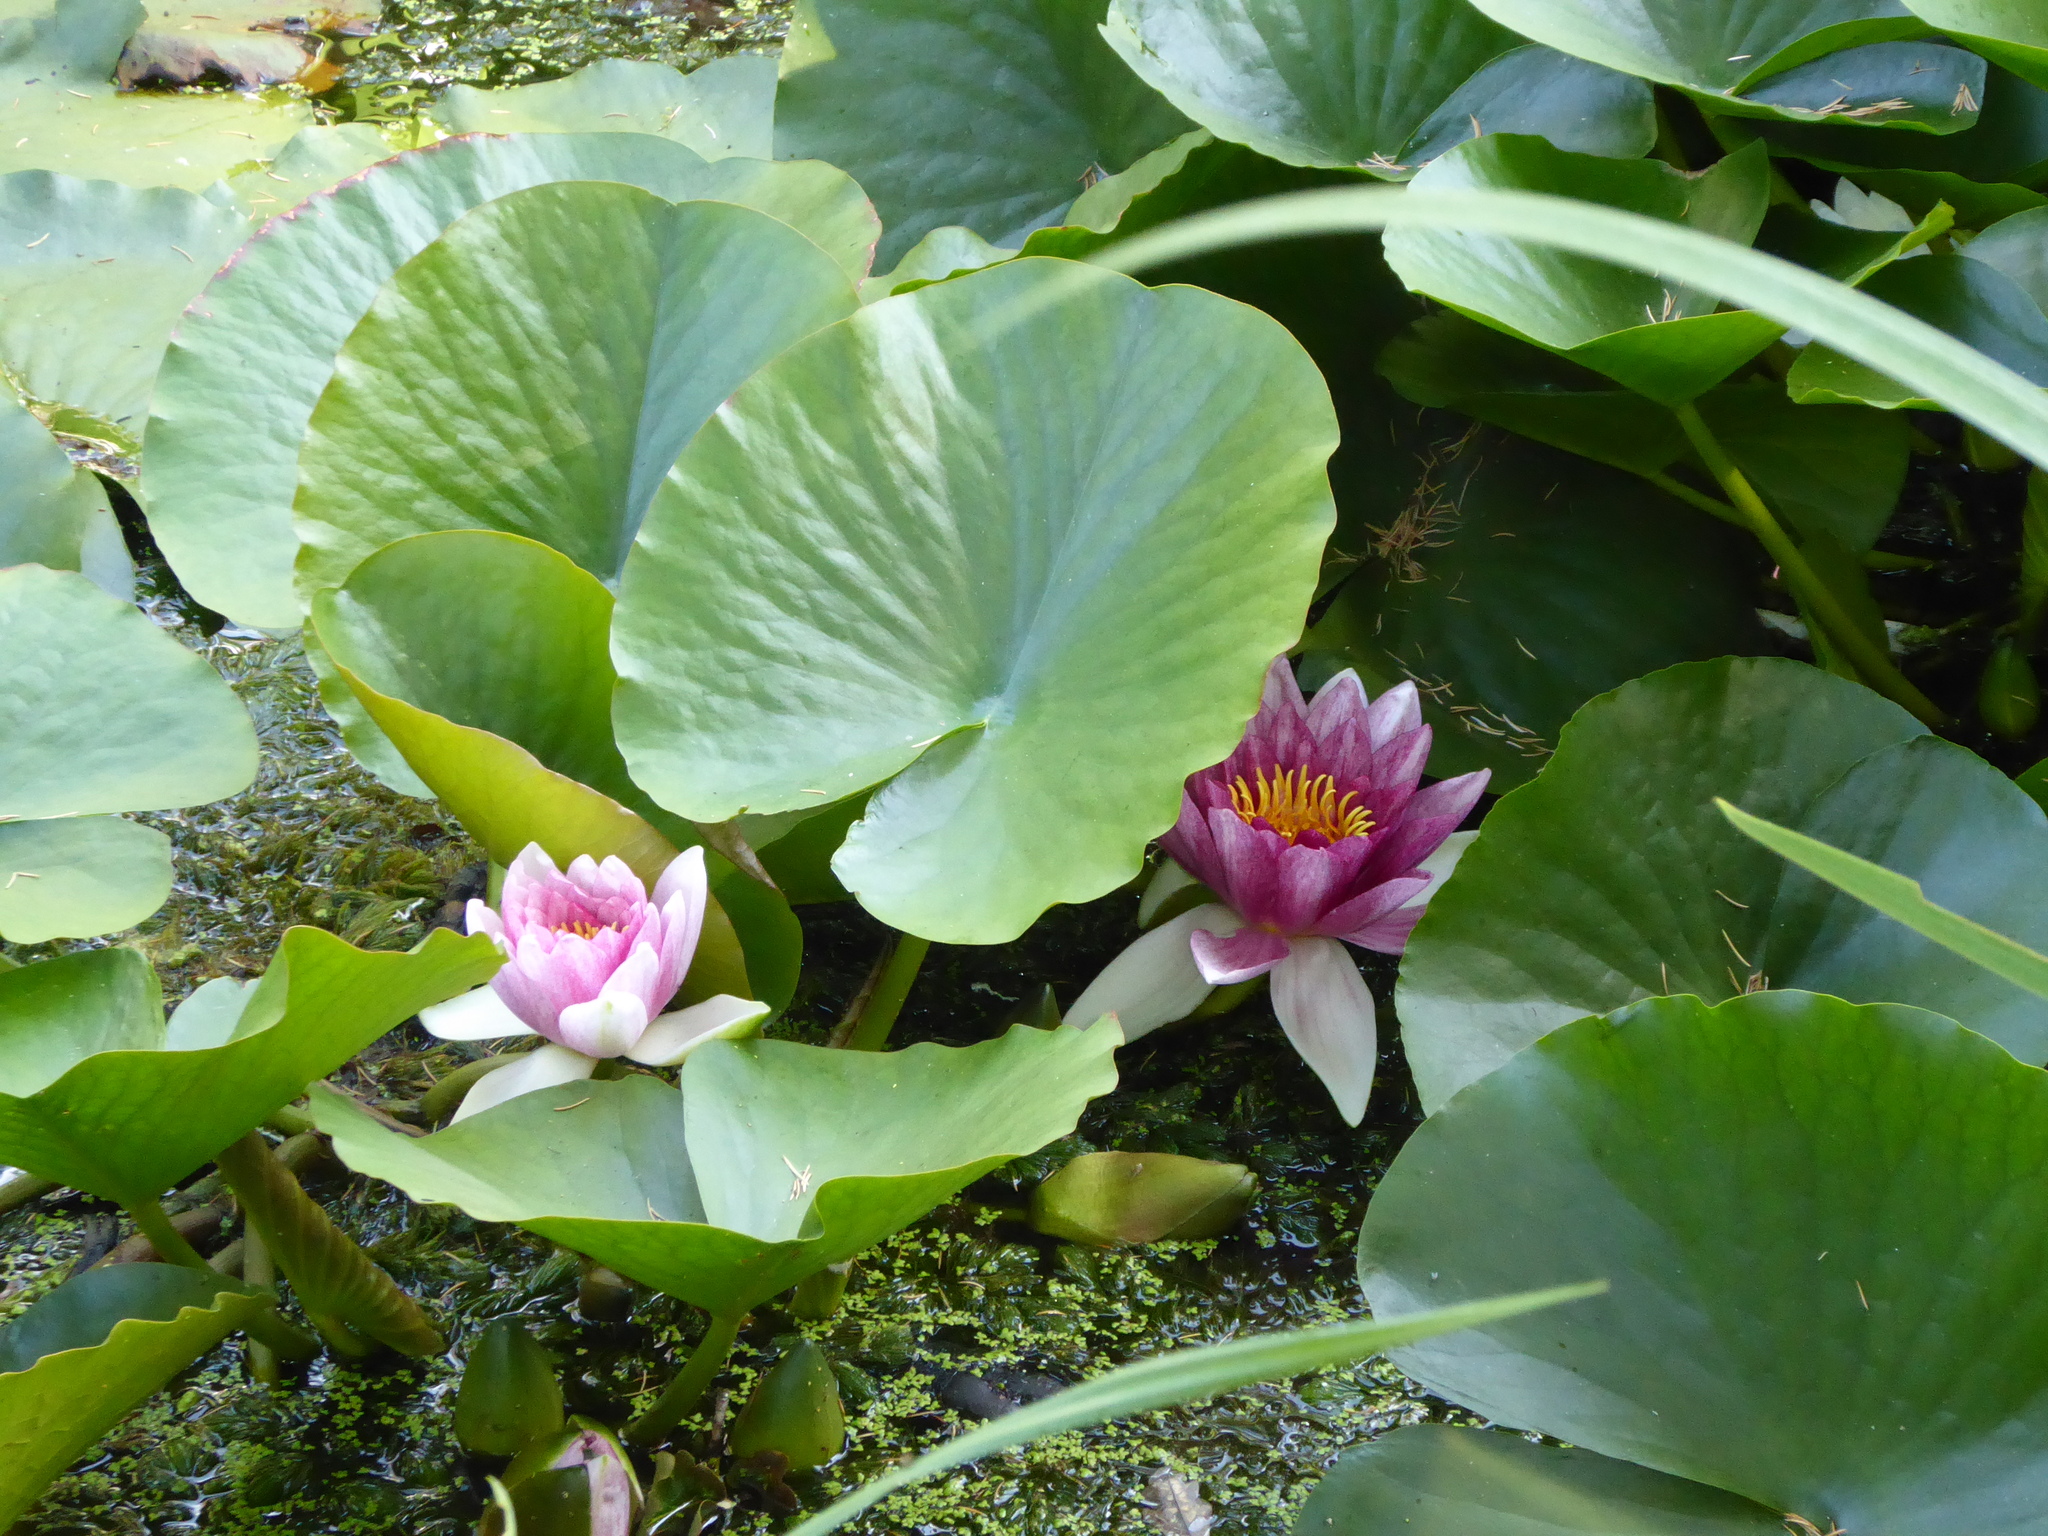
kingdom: Plantae
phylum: Tracheophyta
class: Magnoliopsida
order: Nymphaeales
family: Nymphaeaceae
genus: Nymphaea
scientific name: Nymphaea marliacea
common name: Water-lily
